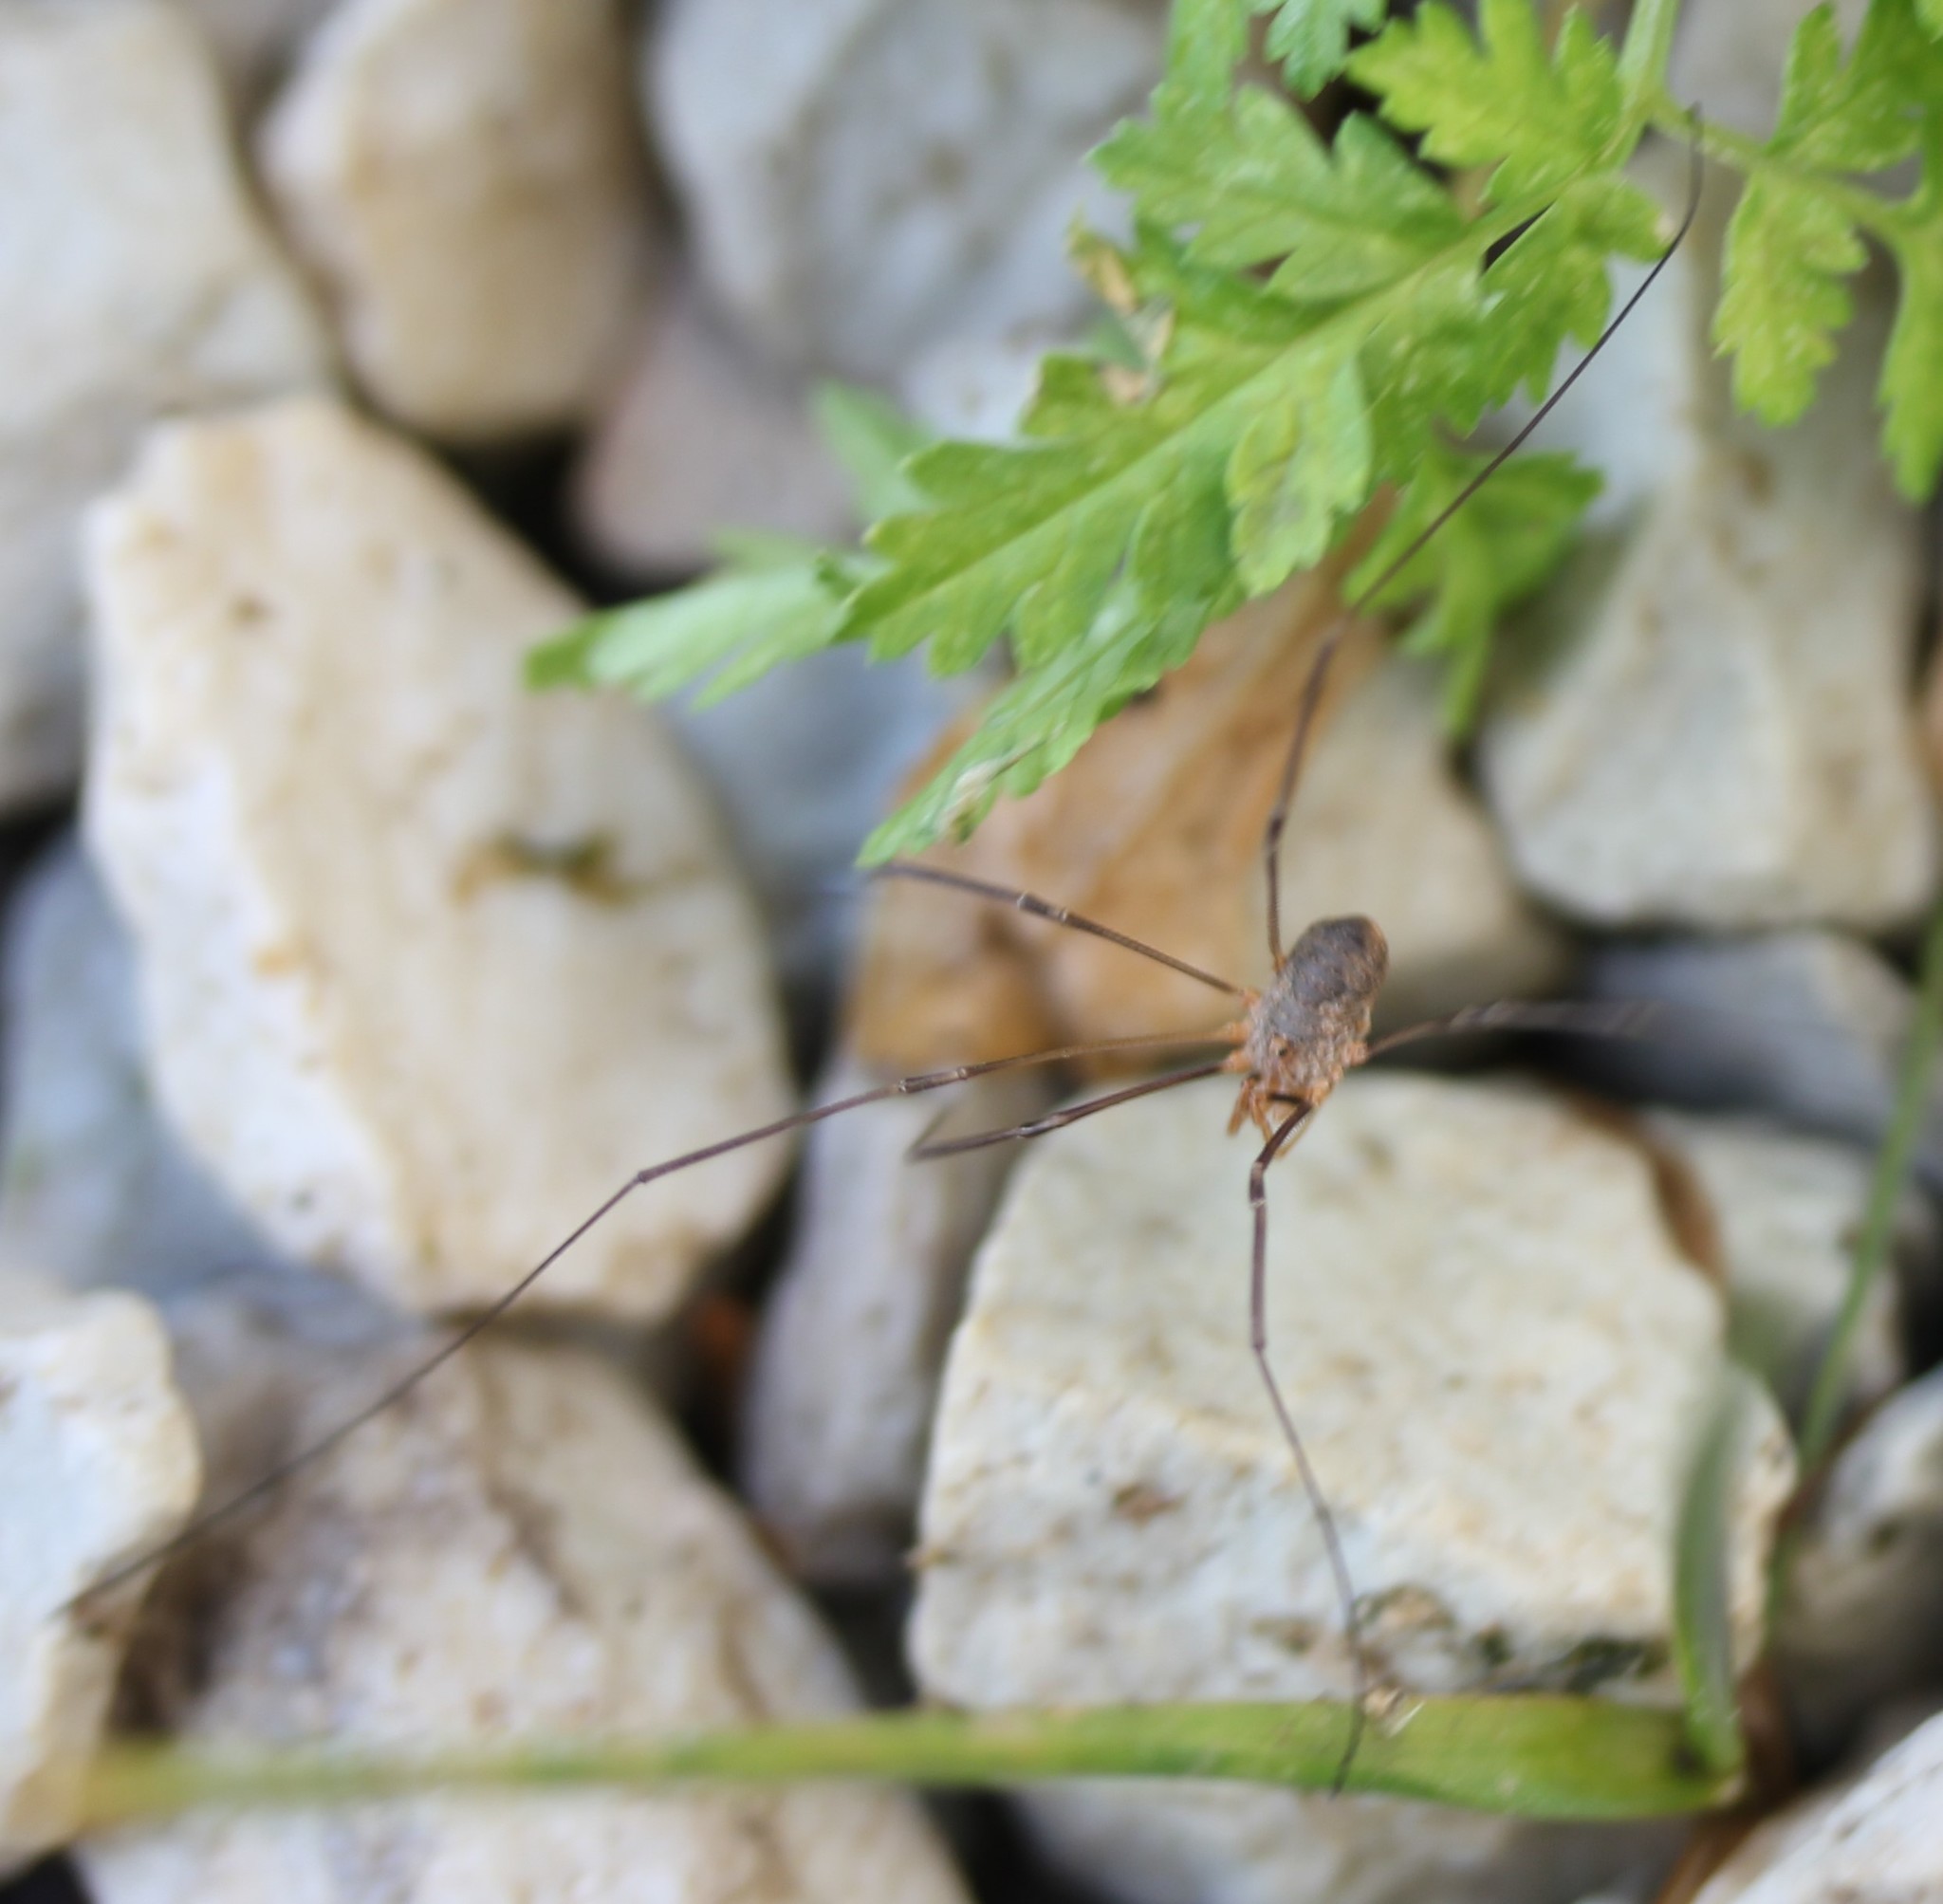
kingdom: Animalia
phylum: Arthropoda
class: Arachnida
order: Opiliones
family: Phalangiidae
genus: Phalangium
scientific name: Phalangium opilio
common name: Daddy longleg
